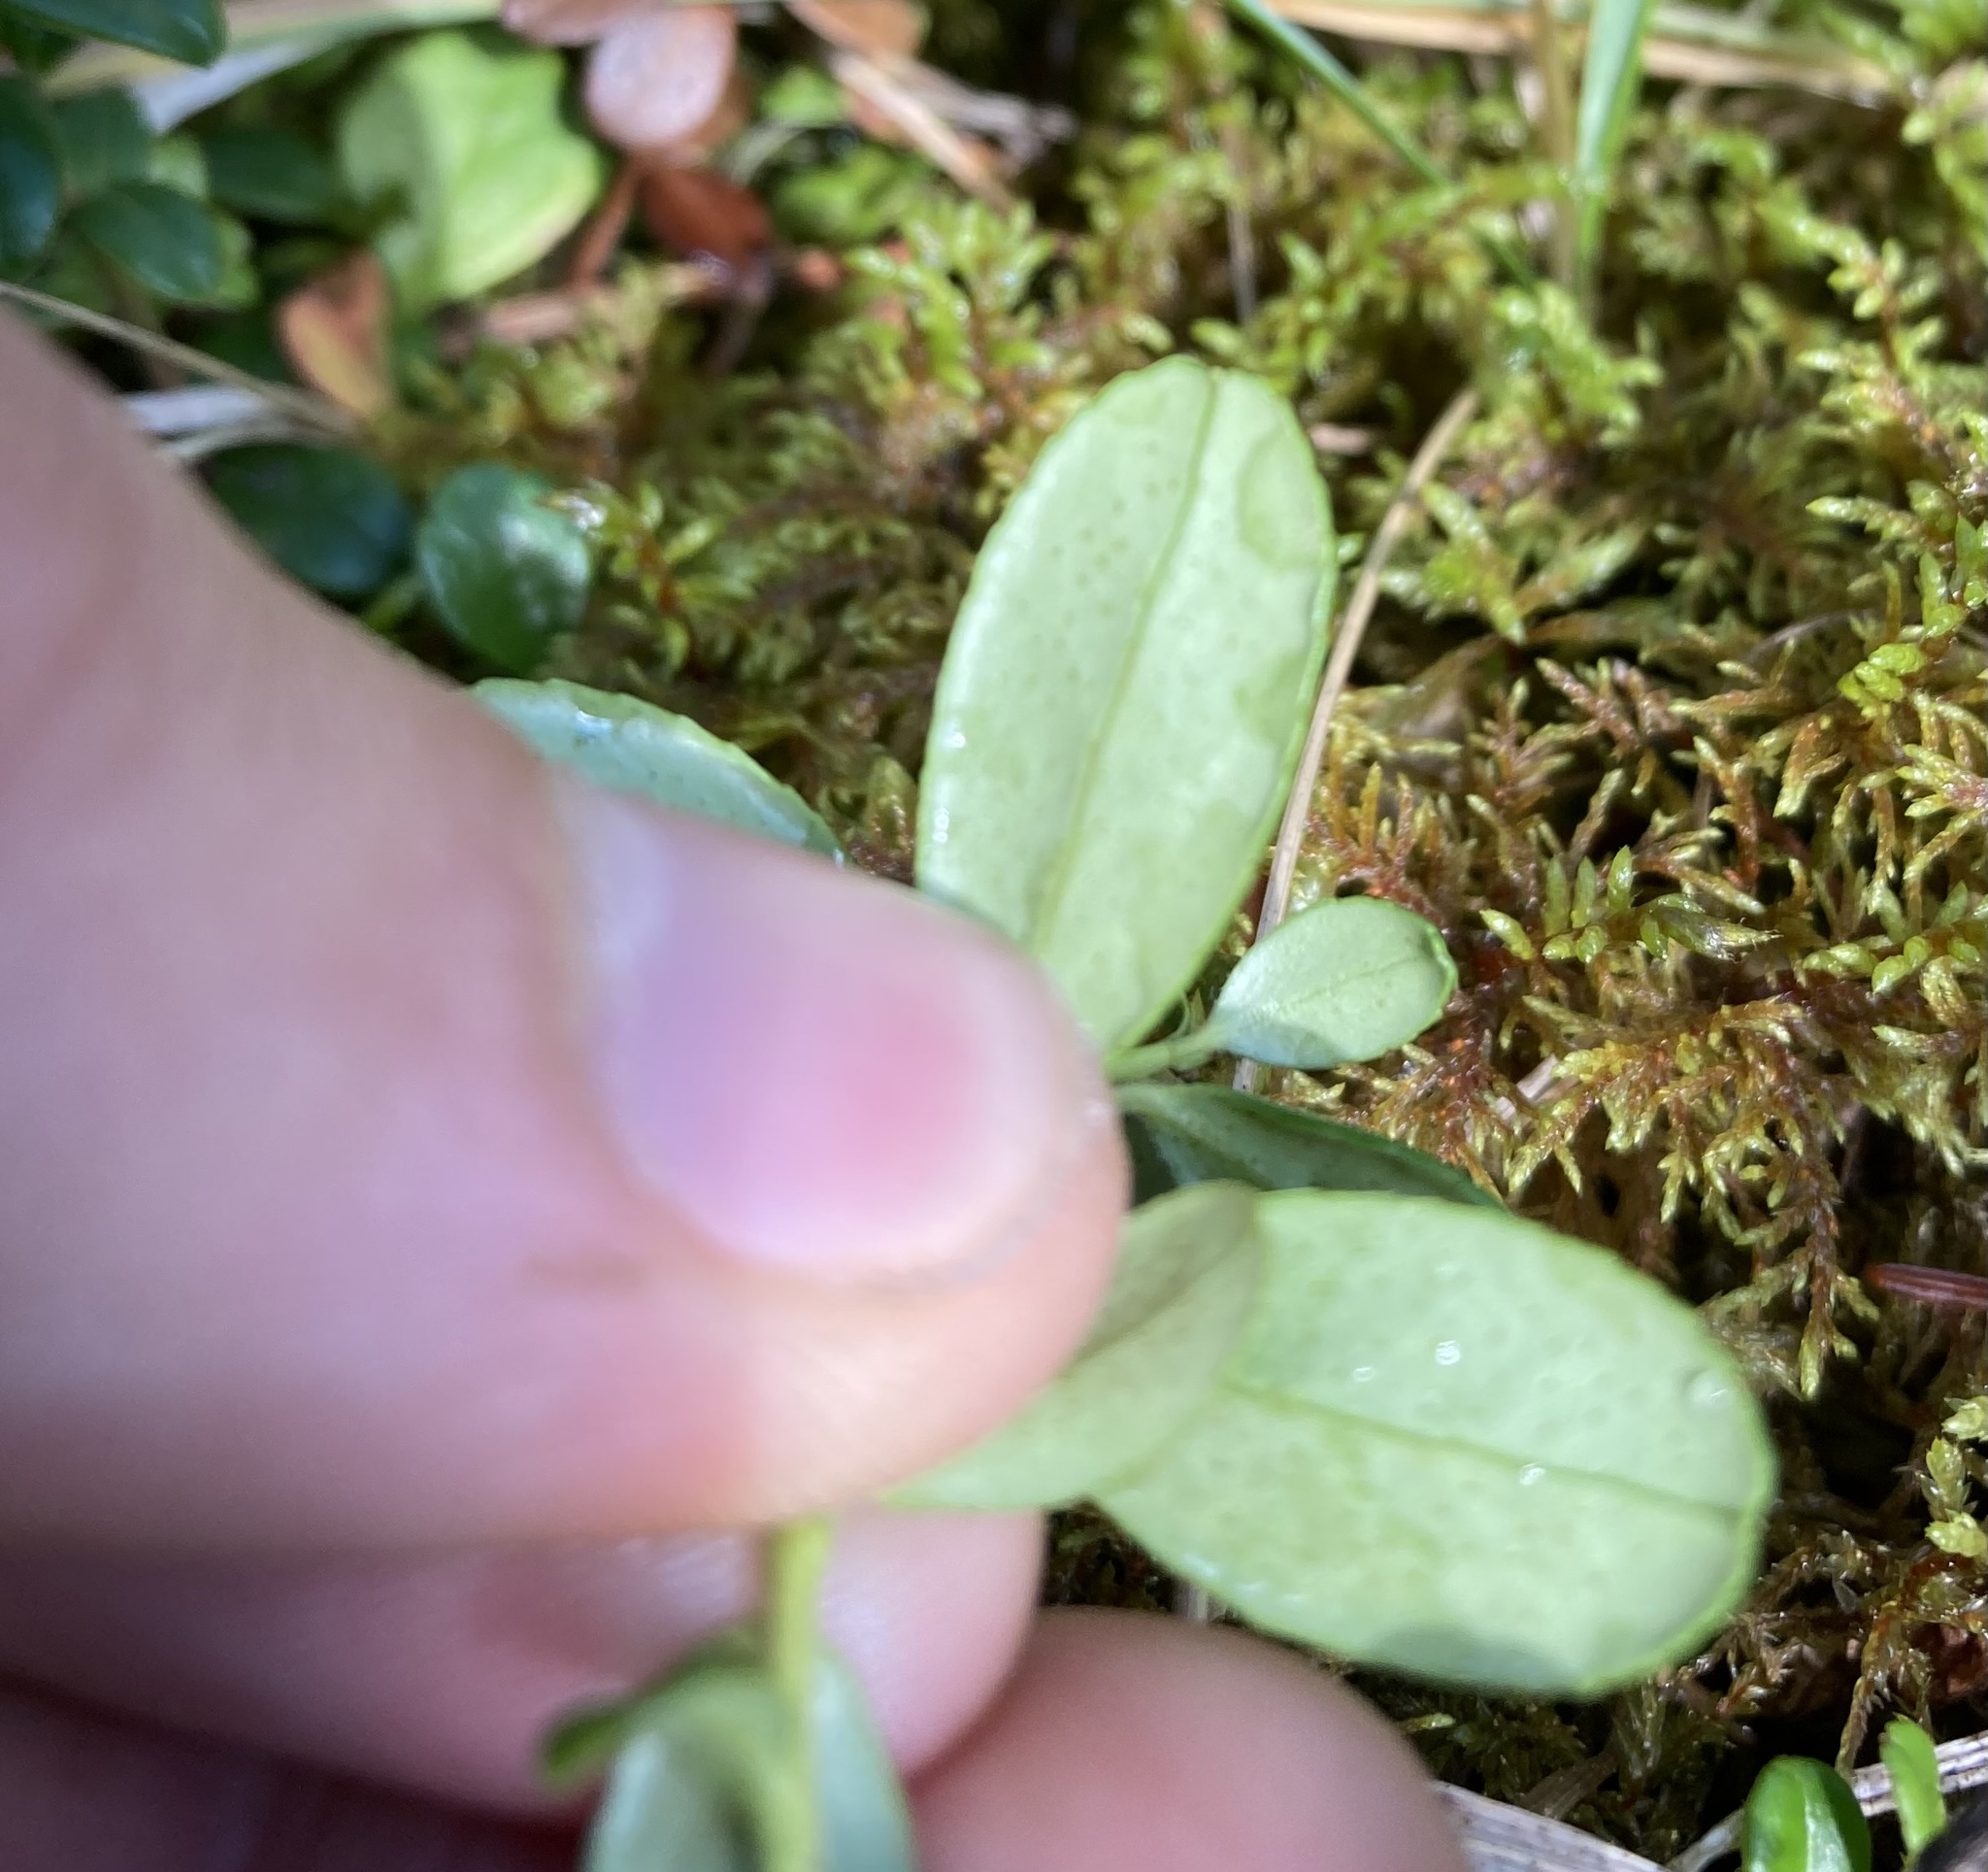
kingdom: Plantae
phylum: Tracheophyta
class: Magnoliopsida
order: Ericales
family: Ericaceae
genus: Vaccinium
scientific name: Vaccinium vitis-idaea
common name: Cowberry
